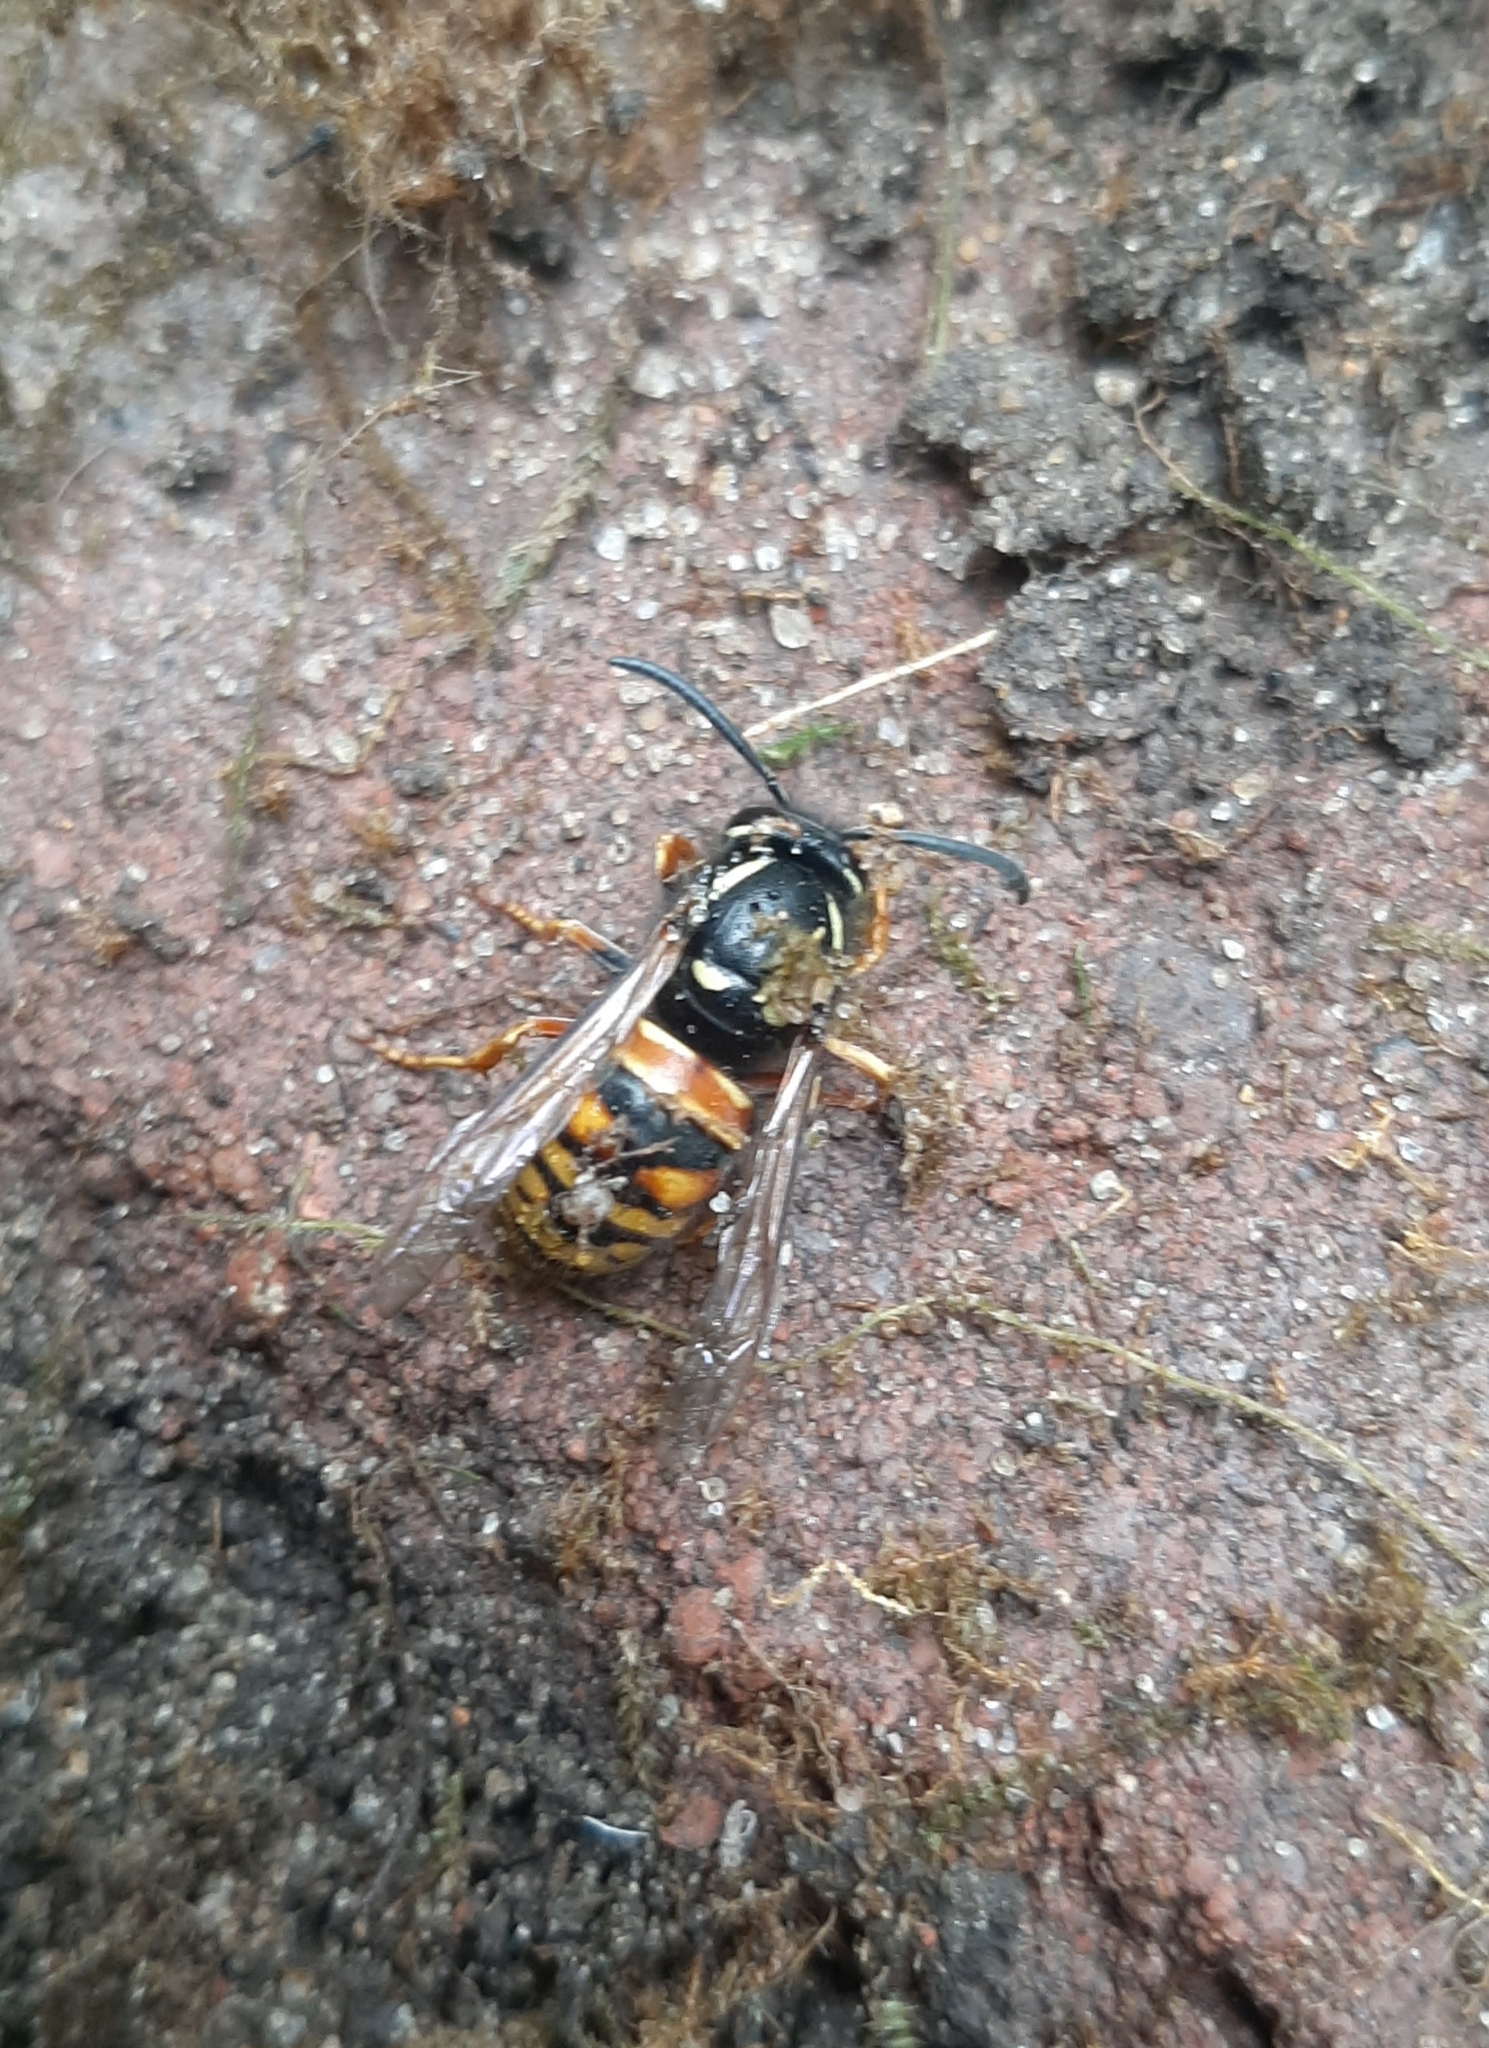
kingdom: Animalia
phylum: Arthropoda
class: Insecta
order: Hymenoptera
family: Vespidae
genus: Vespula
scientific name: Vespula rufa
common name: Red wasp
